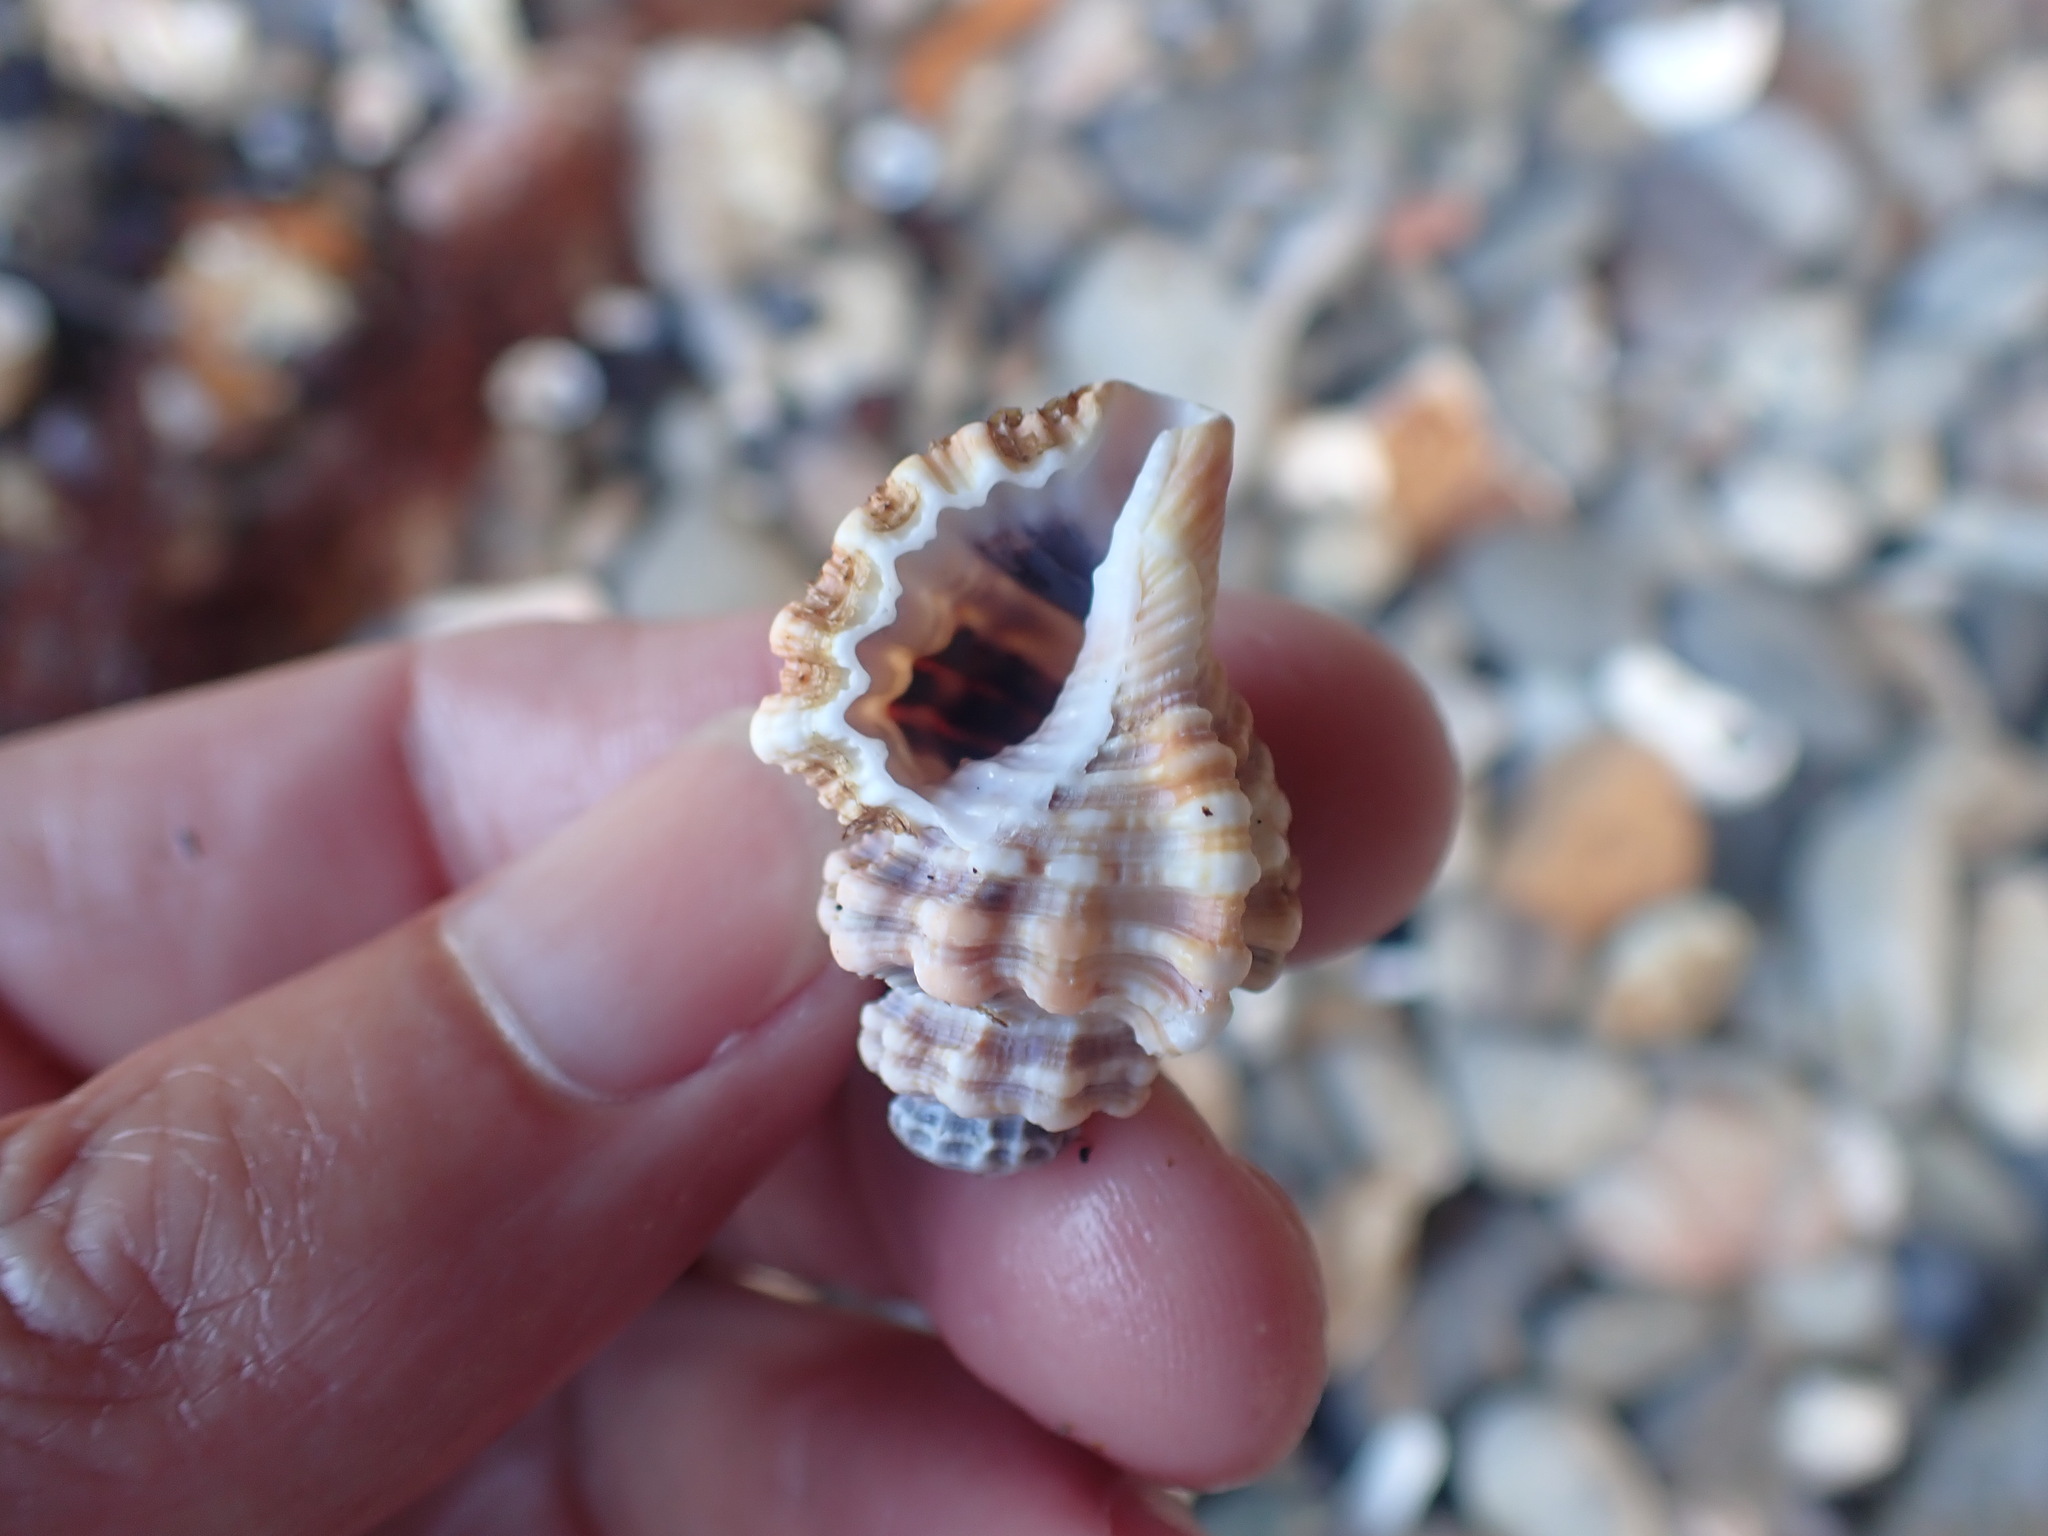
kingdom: Animalia
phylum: Mollusca
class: Gastropoda
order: Littorinimorpha
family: Cymatiidae
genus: Monoplex
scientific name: Monoplex exaratus
